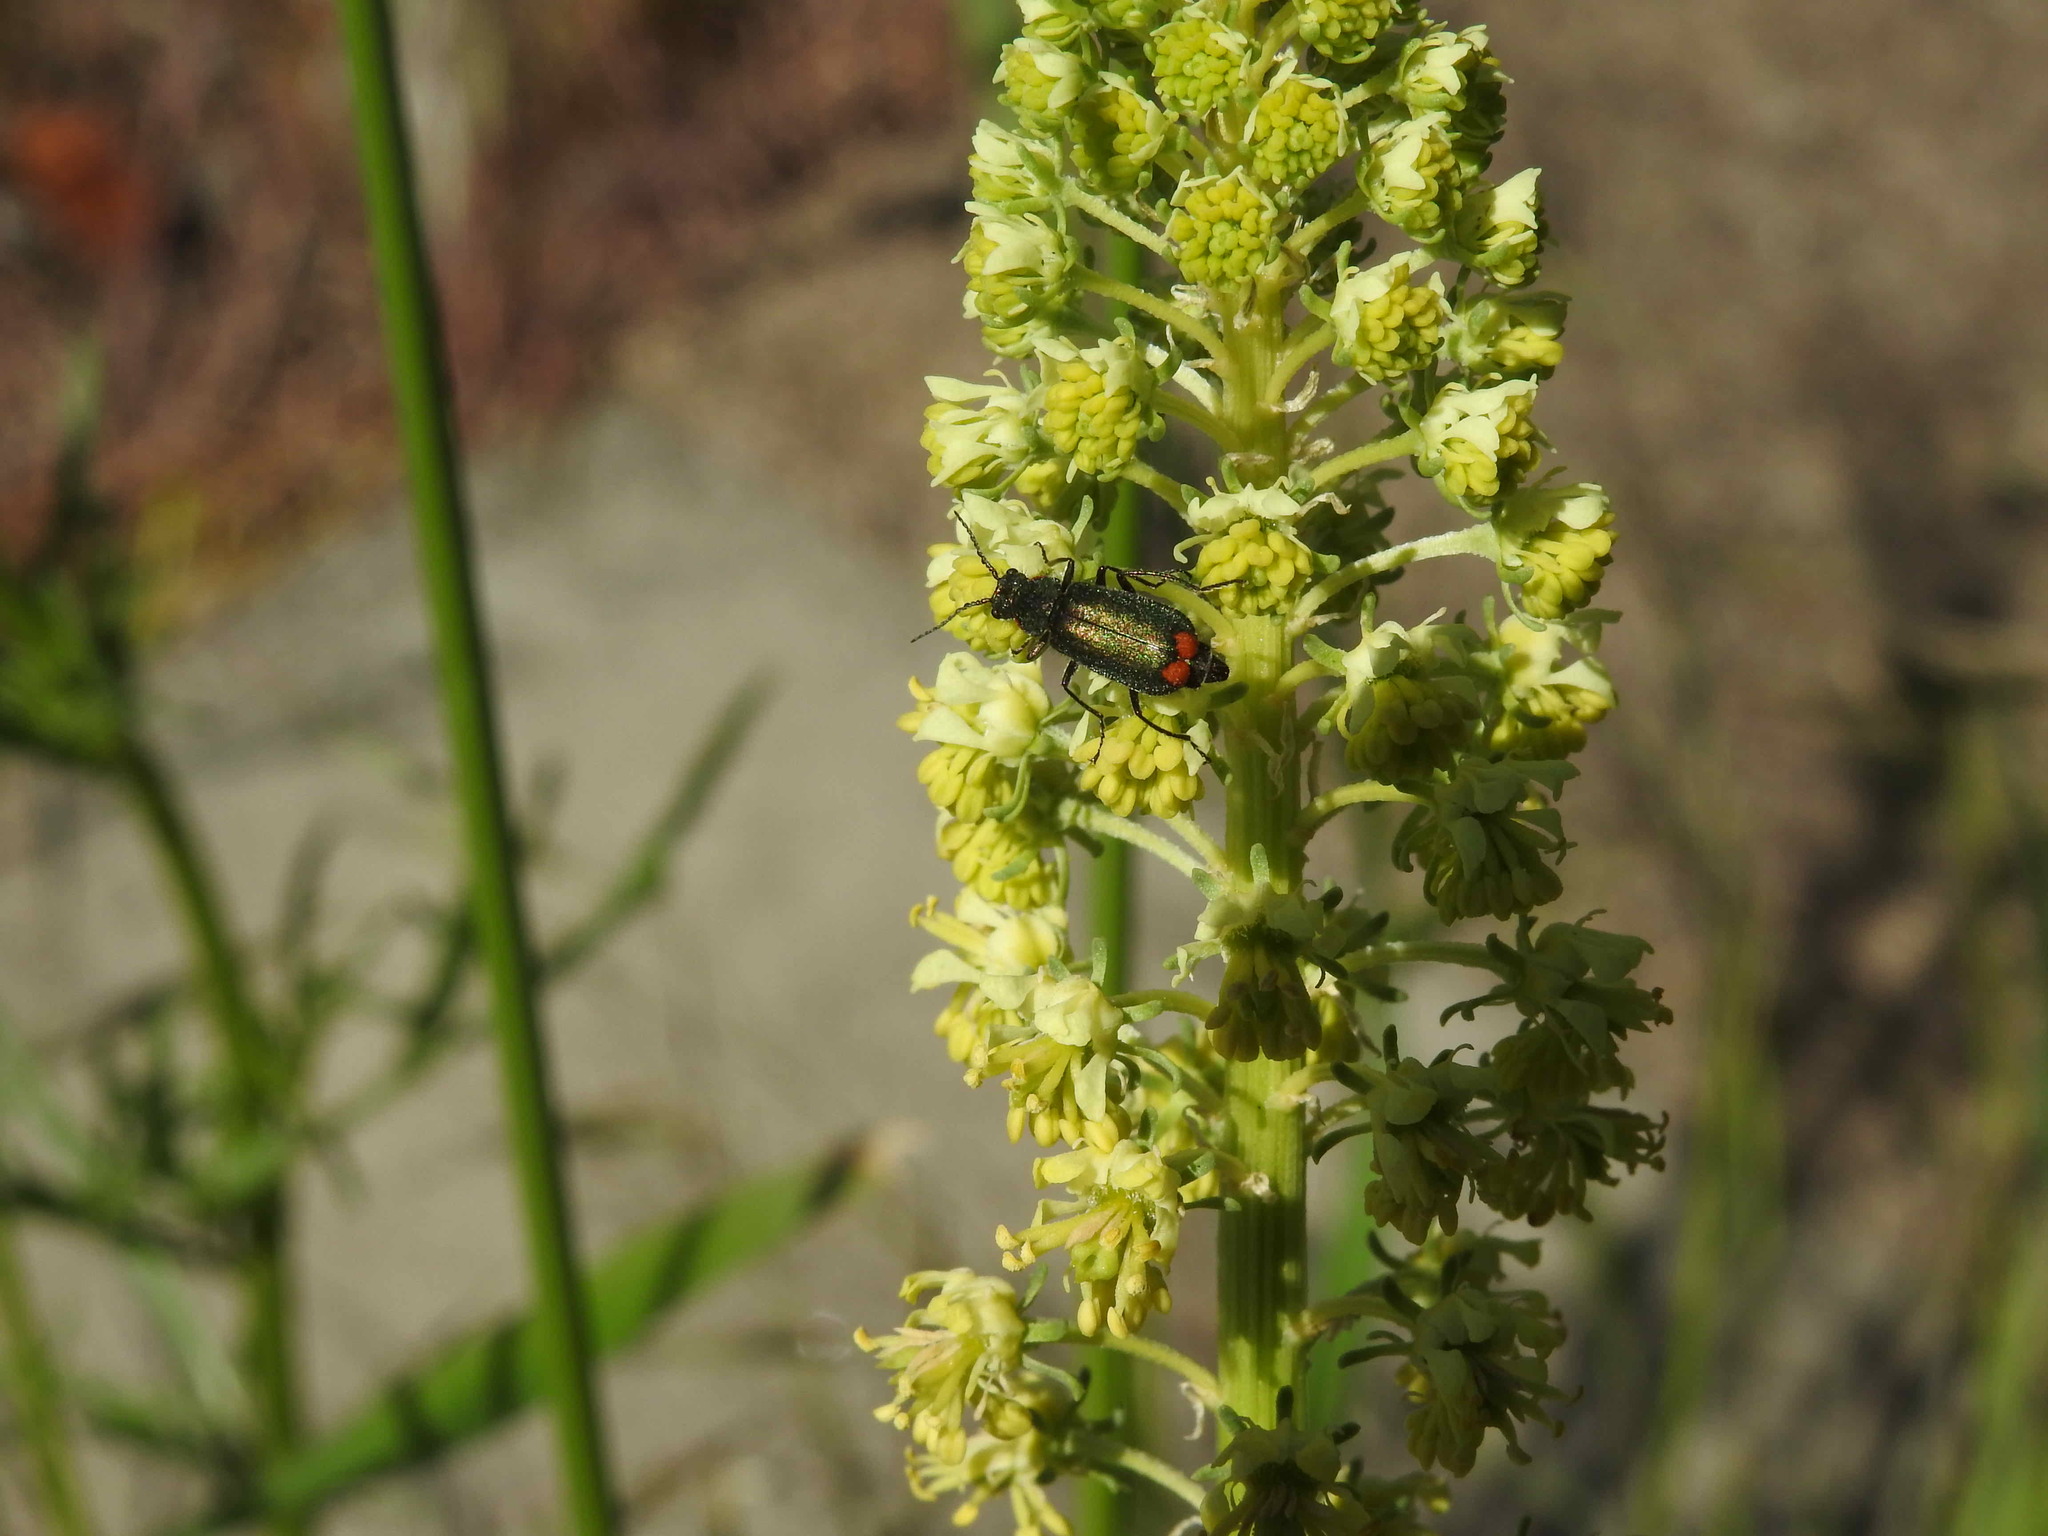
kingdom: Animalia
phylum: Arthropoda
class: Insecta
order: Coleoptera
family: Melyridae
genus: Malachius
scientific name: Malachius bipustulatus
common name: Malachite beetle
